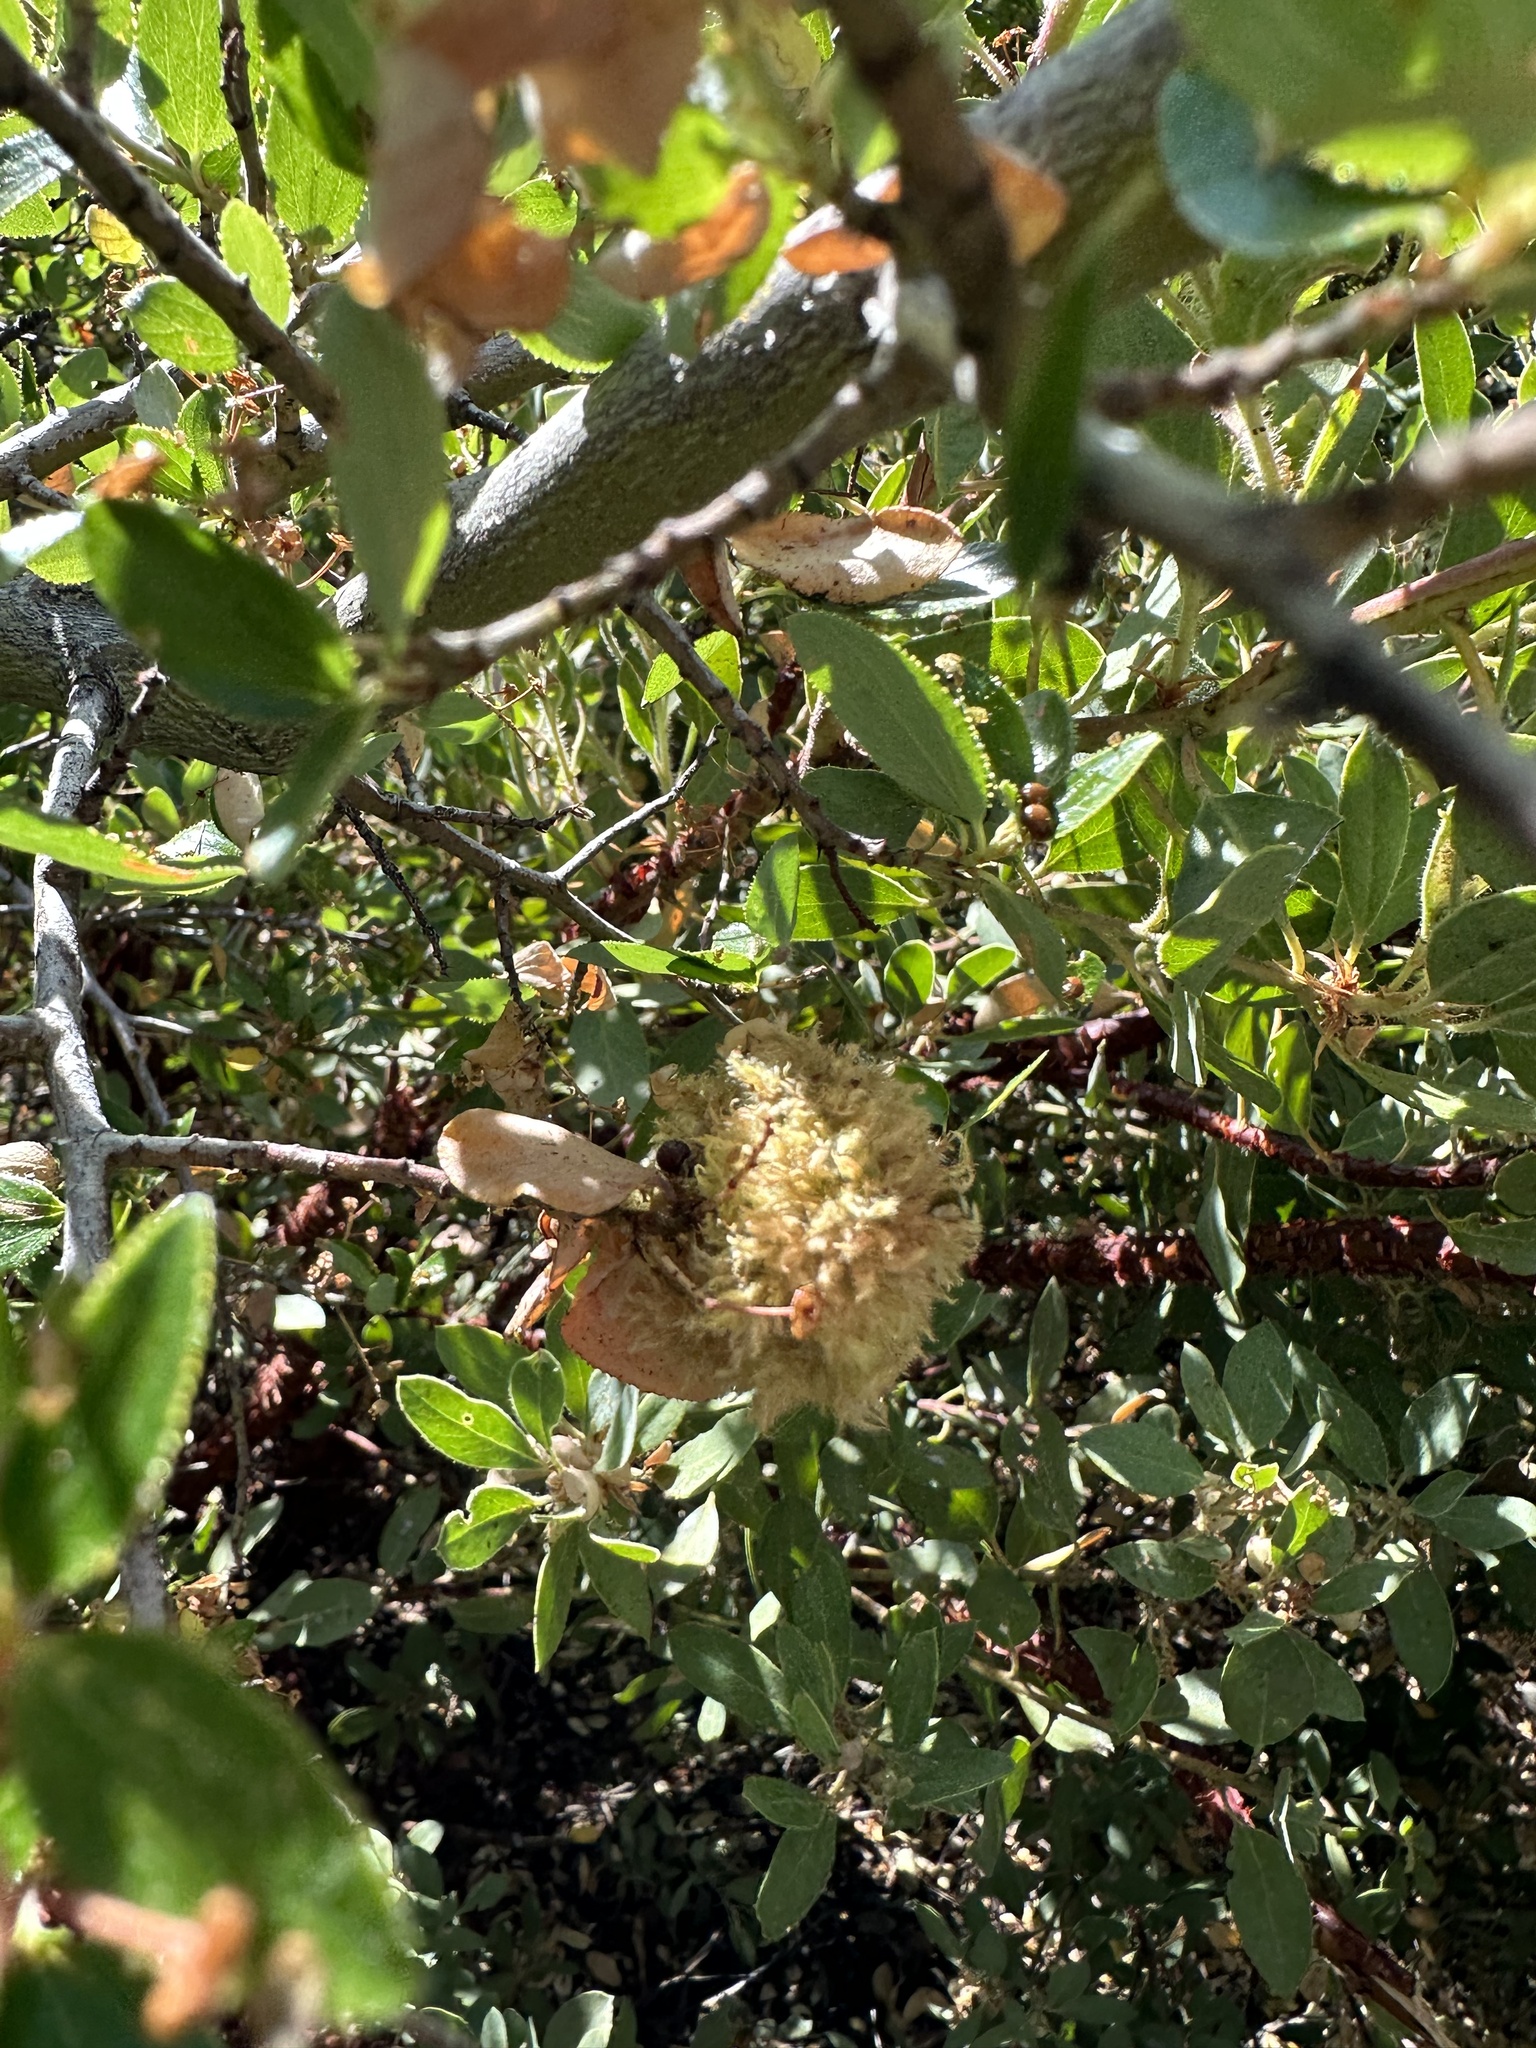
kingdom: Animalia
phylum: Arthropoda
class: Insecta
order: Diptera
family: Cecidomyiidae
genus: Asphondylia
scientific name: Asphondylia ceanothi
